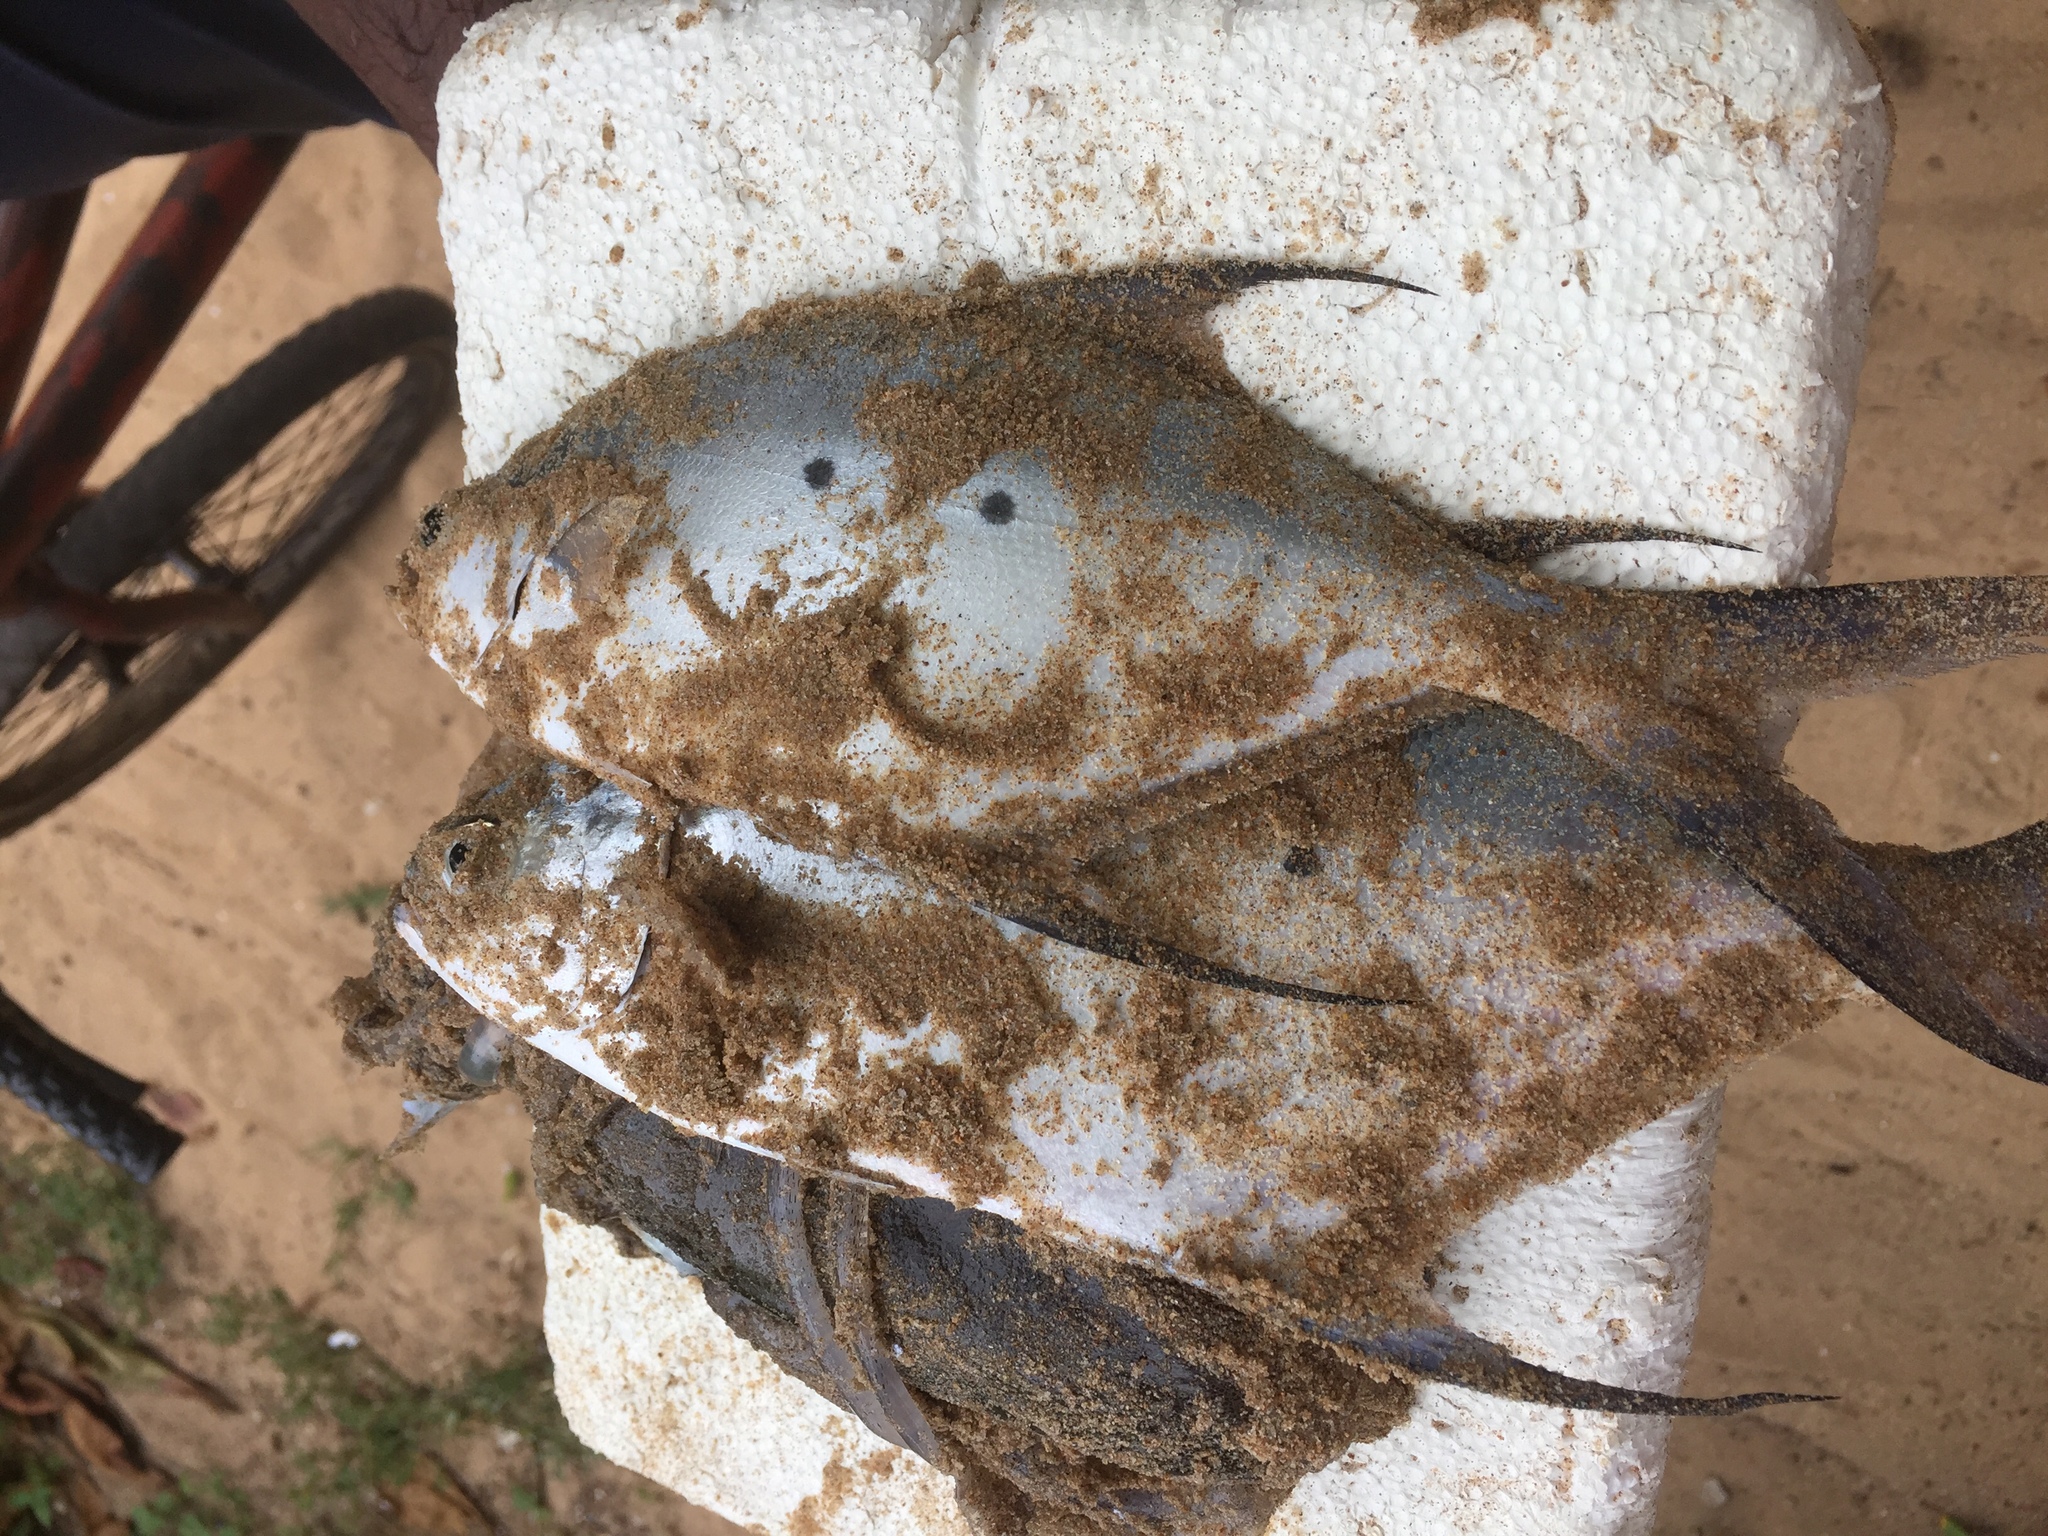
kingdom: Animalia
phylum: Chordata
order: Perciformes
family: Carangidae
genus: Trachinotus
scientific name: Trachinotus baillonii
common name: Smallspotted dart
